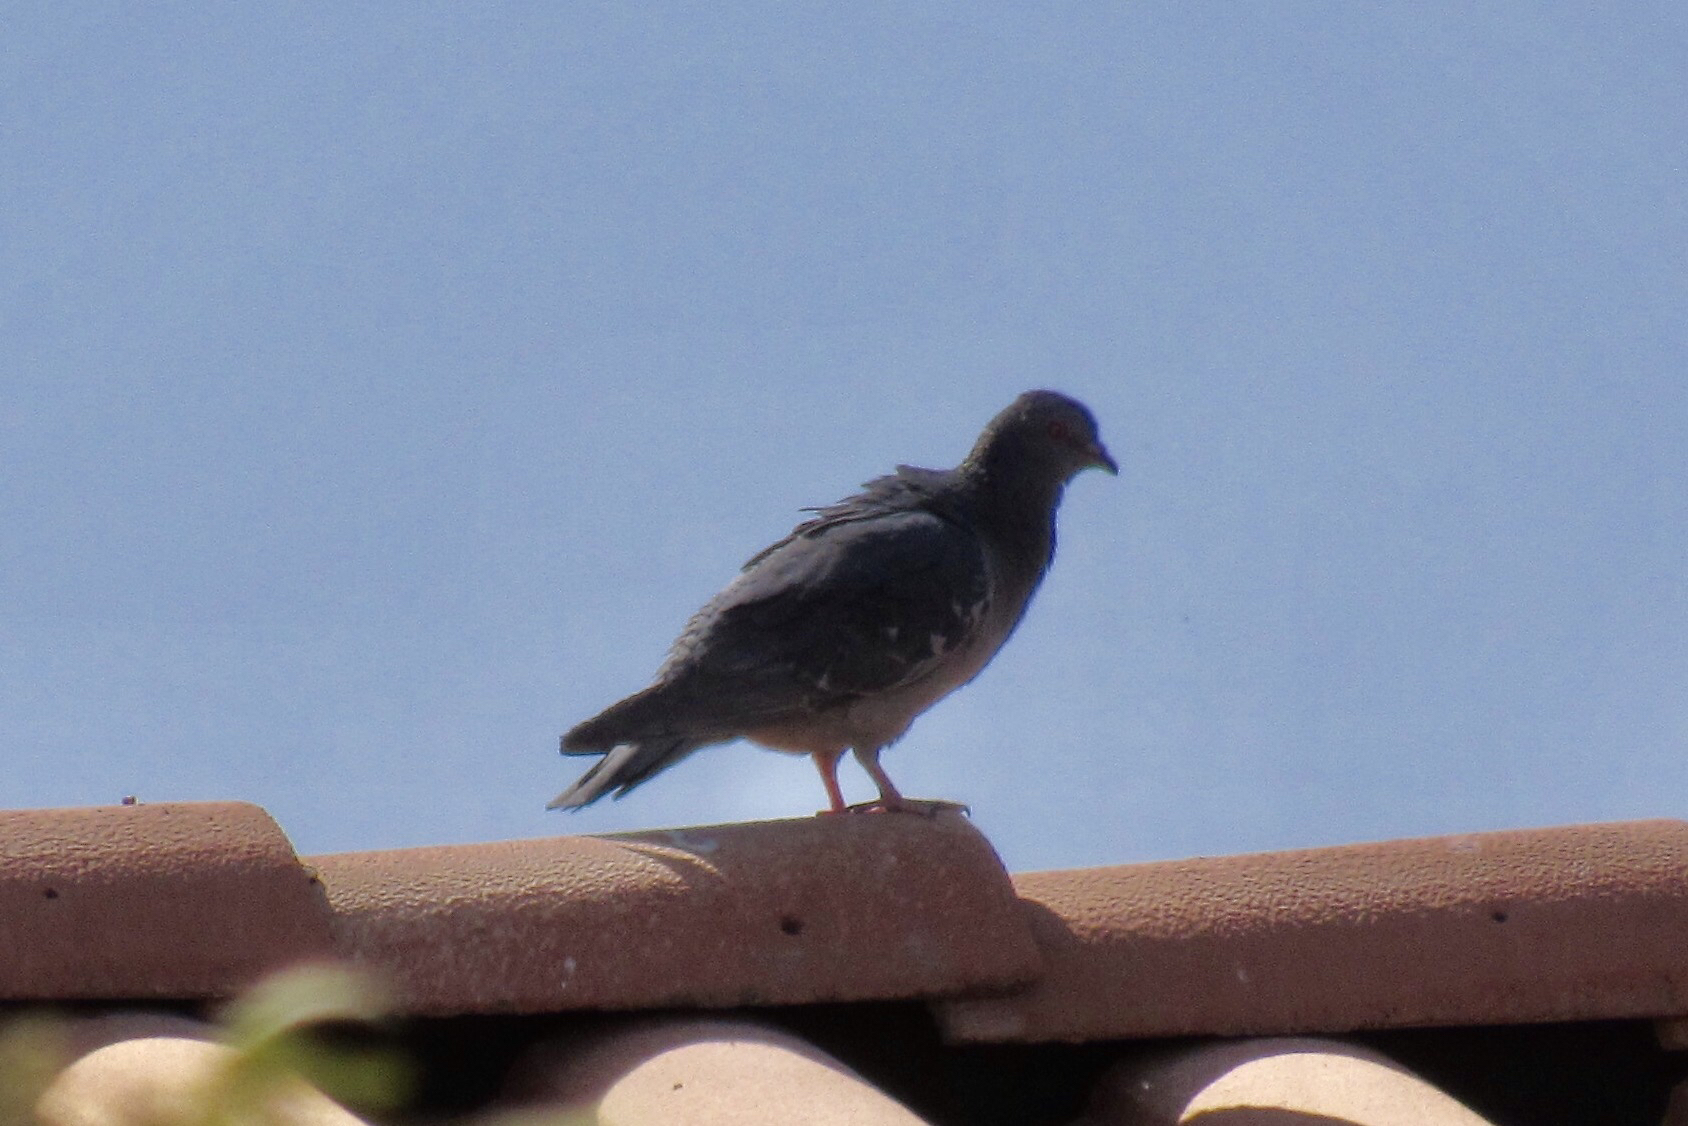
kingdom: Animalia
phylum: Chordata
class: Aves
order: Columbiformes
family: Columbidae
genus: Columba
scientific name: Columba livia
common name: Rock pigeon
